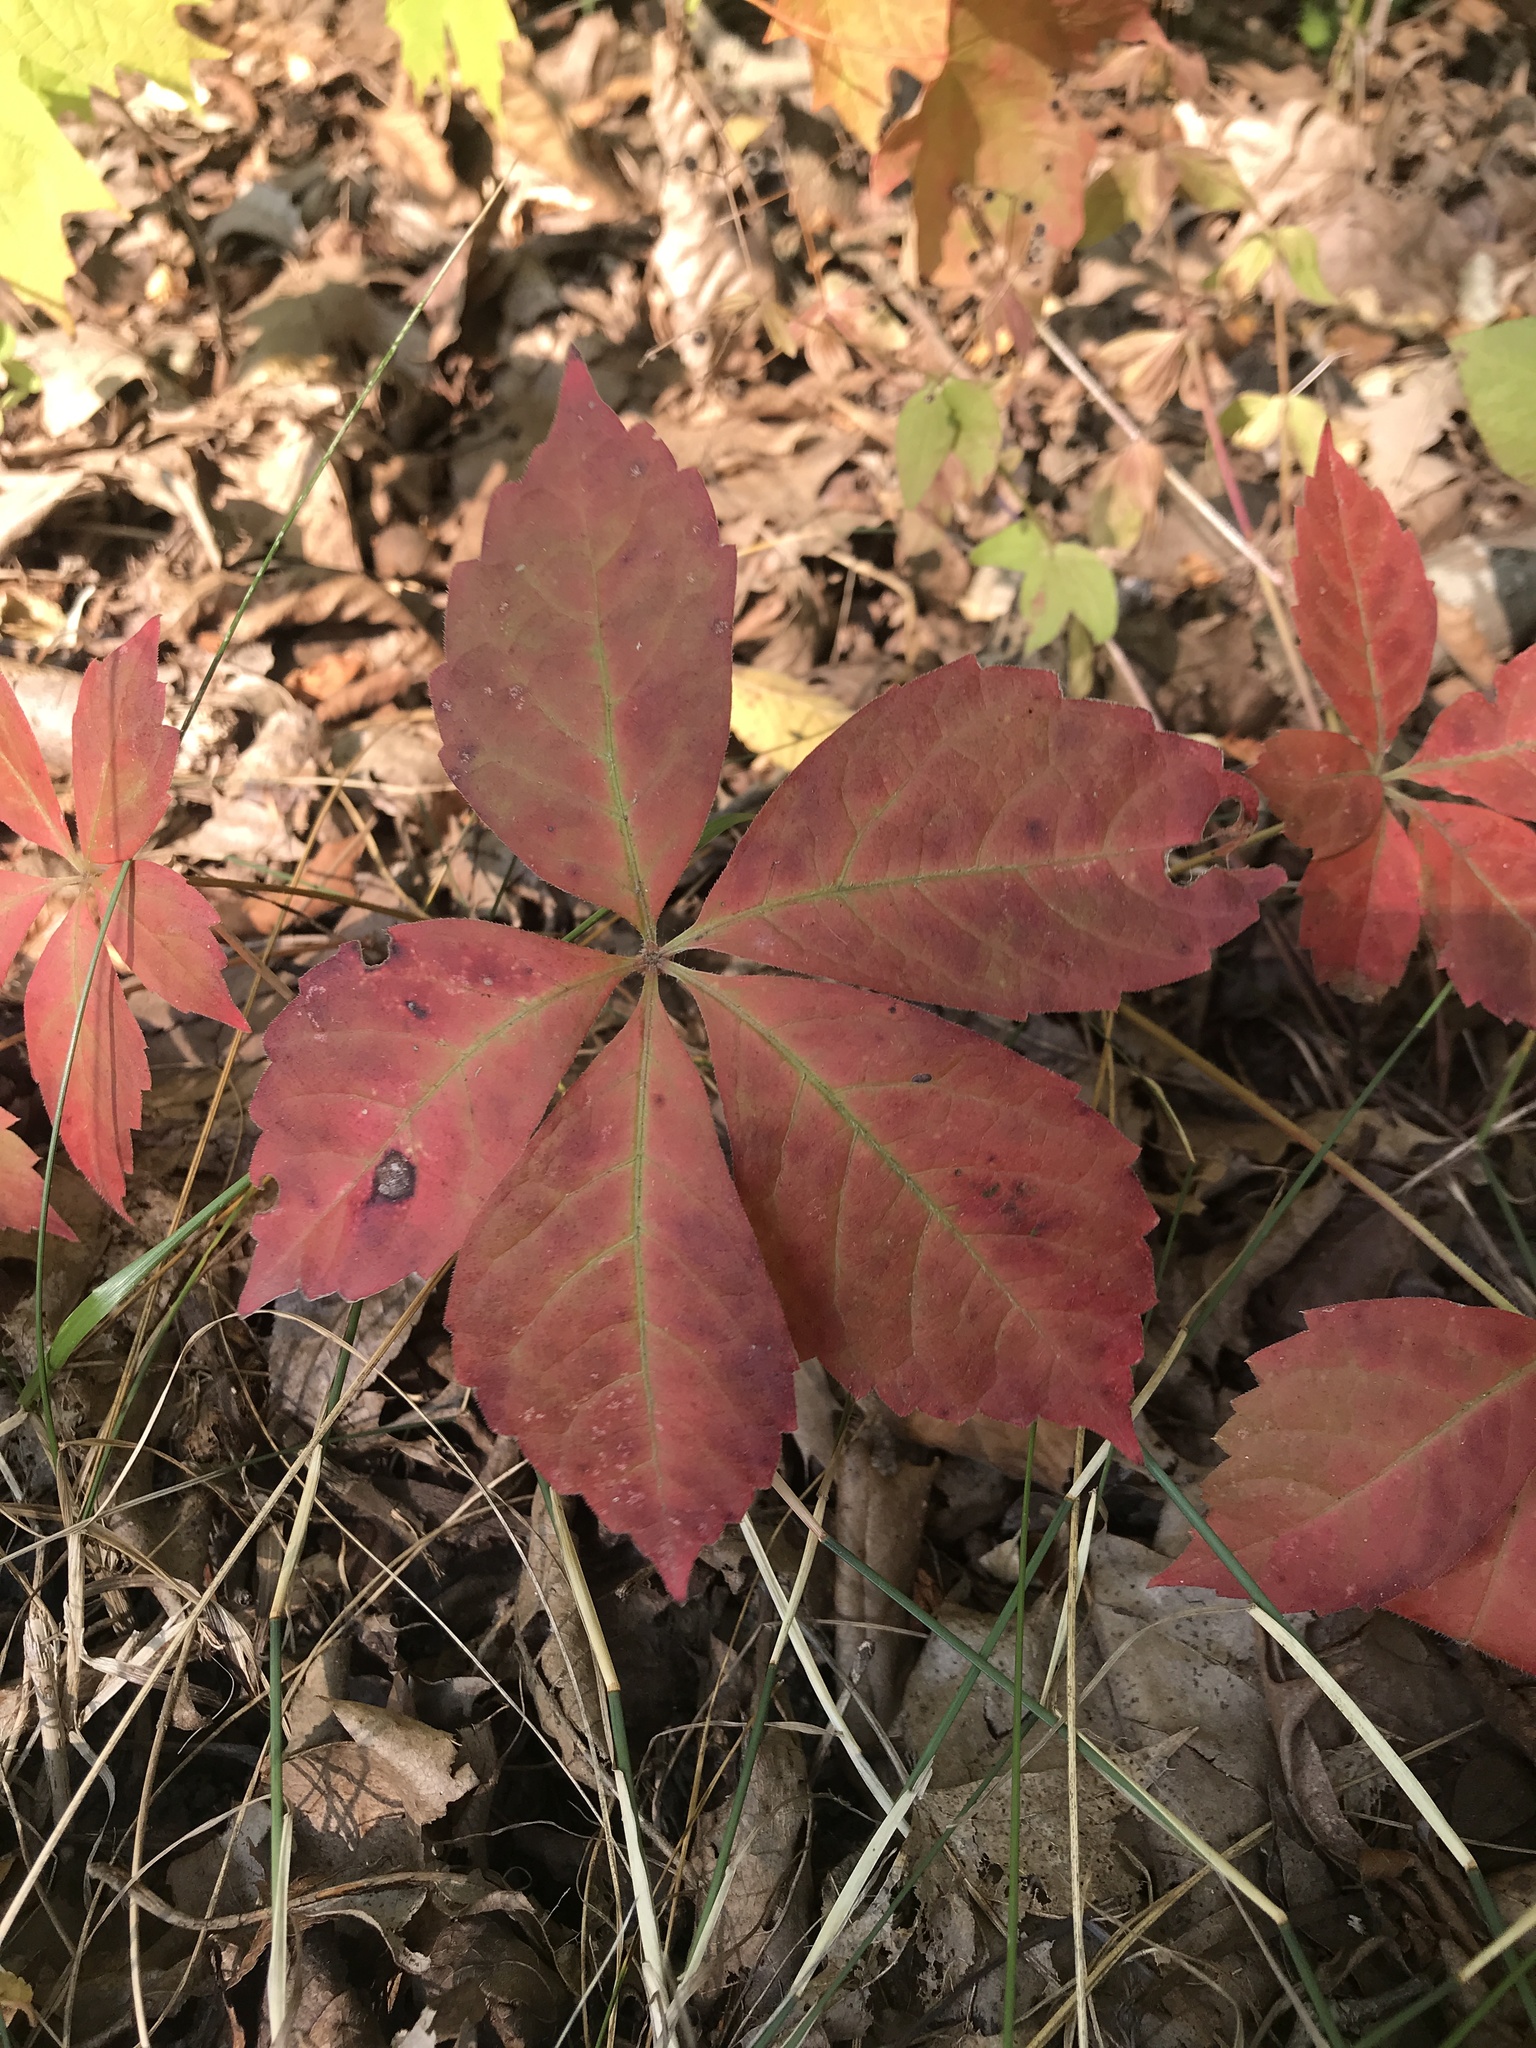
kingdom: Plantae
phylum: Tracheophyta
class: Magnoliopsida
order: Vitales
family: Vitaceae
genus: Parthenocissus
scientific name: Parthenocissus quinquefolia
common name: Virginia-creeper
